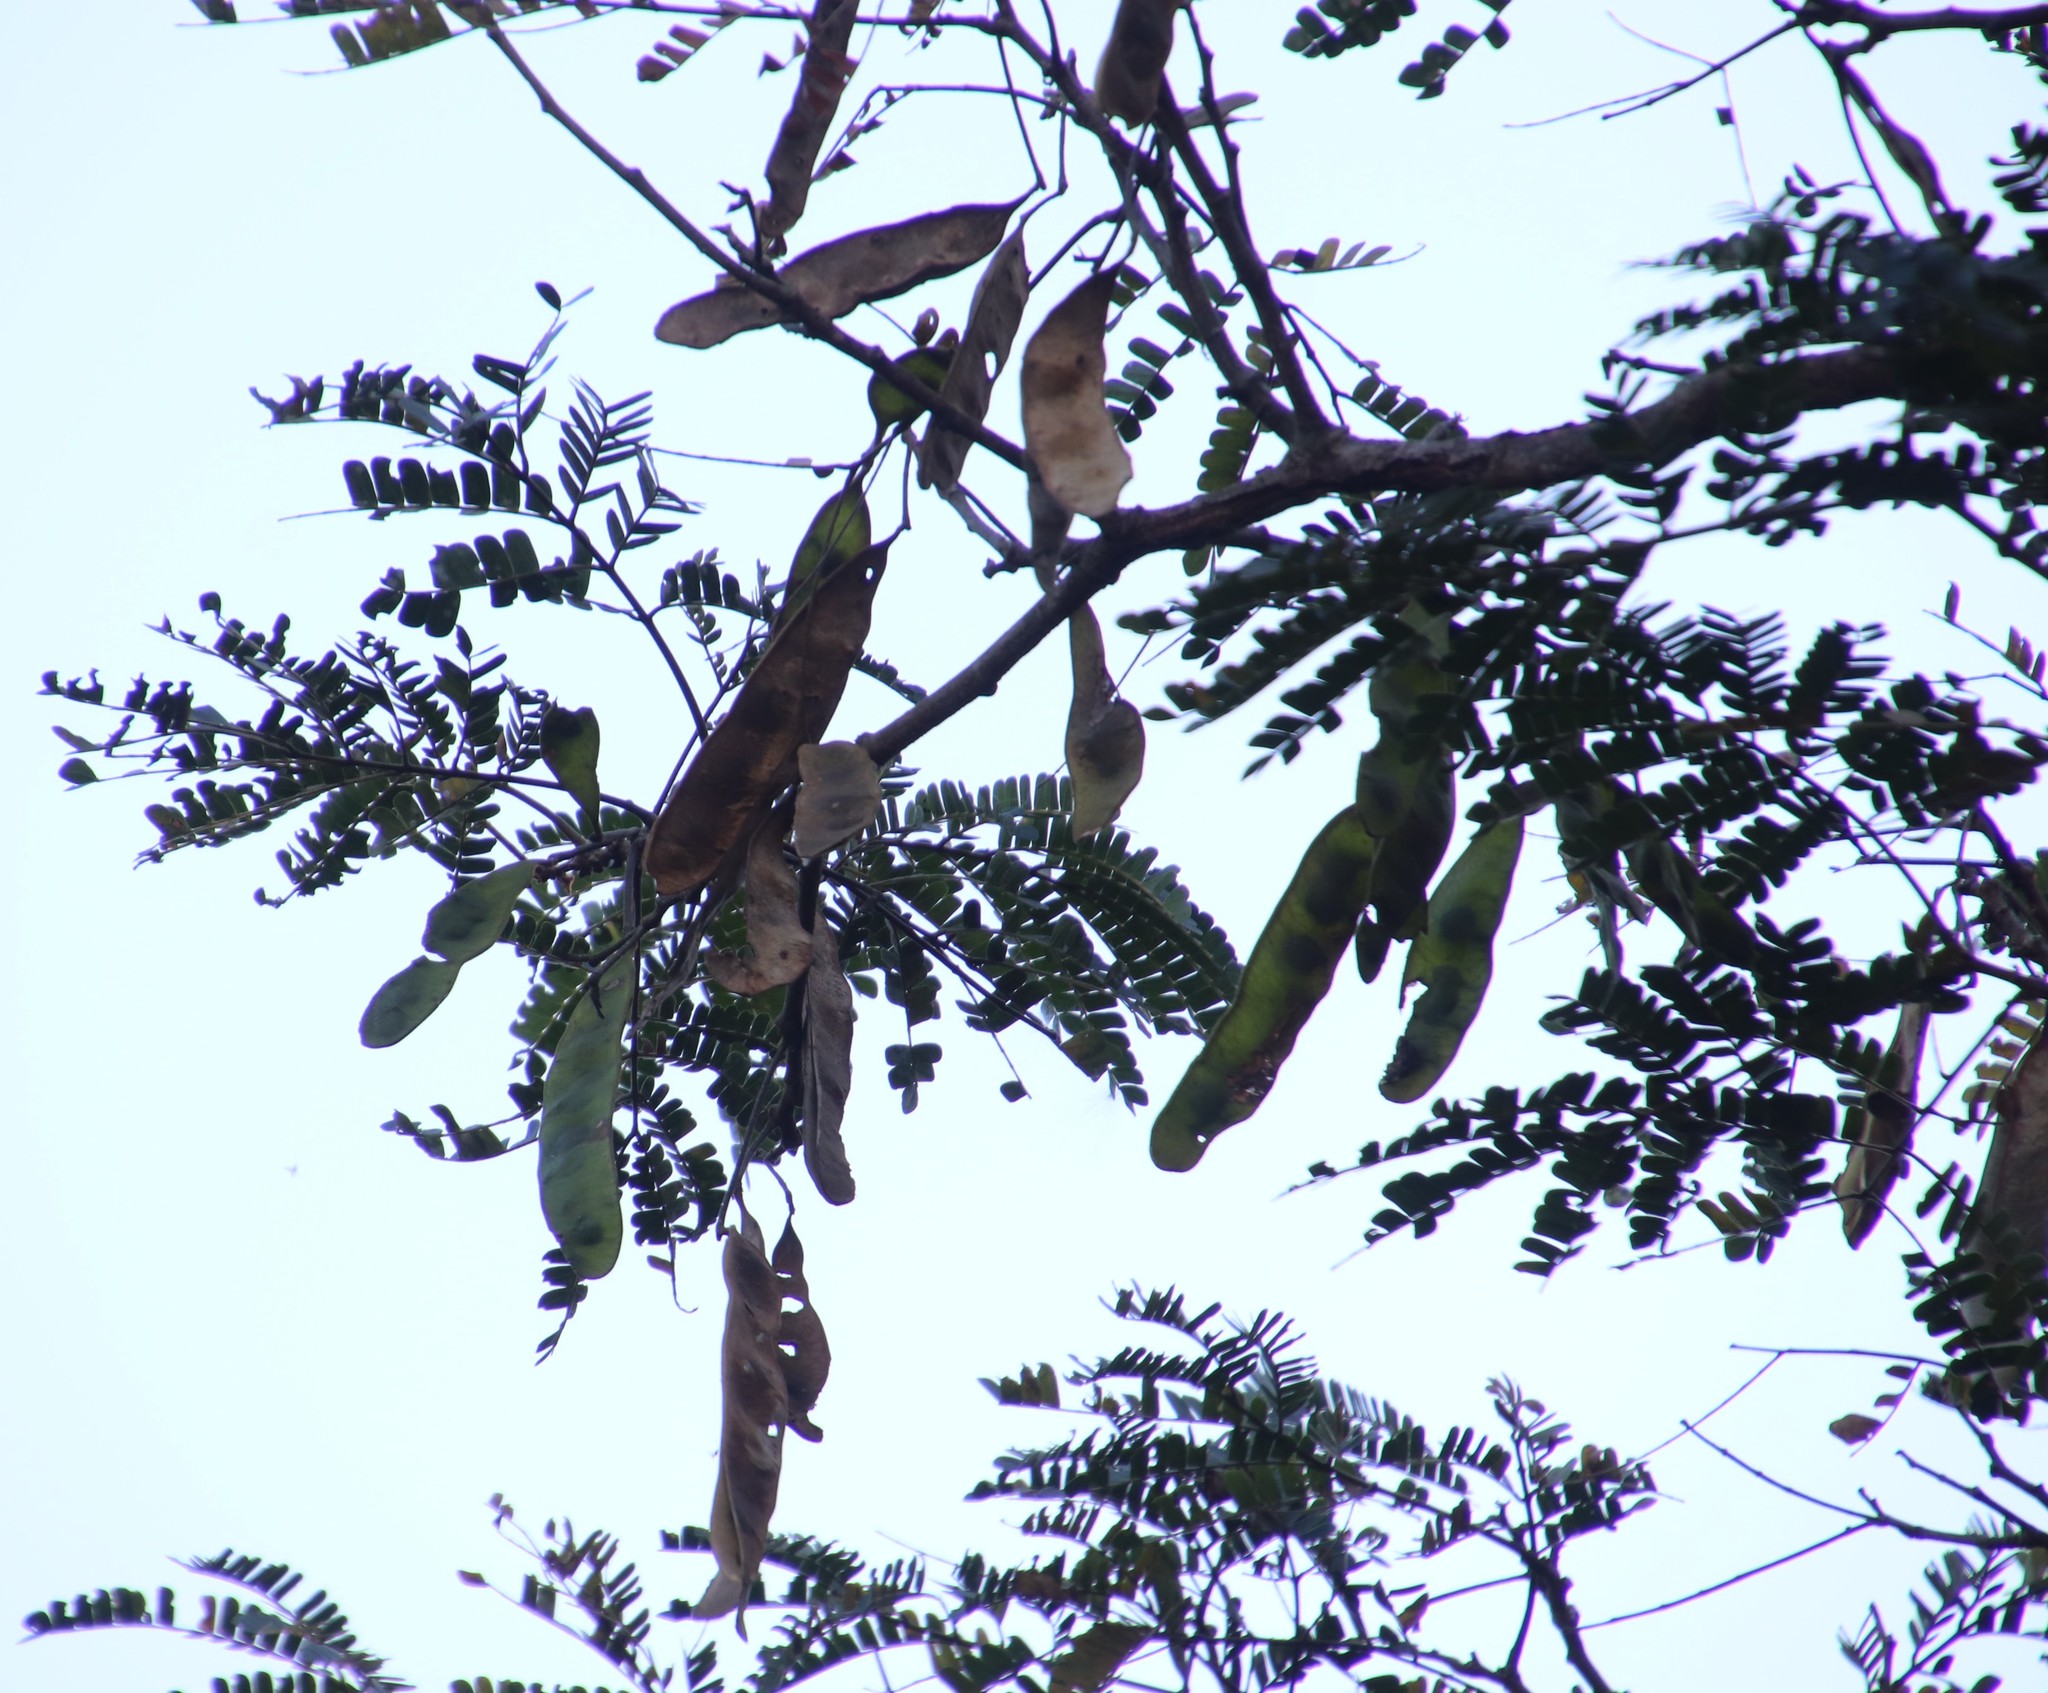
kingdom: Plantae
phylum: Tracheophyta
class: Magnoliopsida
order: Fabales
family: Fabaceae
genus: Albizia
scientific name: Albizia adianthifolia
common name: West african albizia
